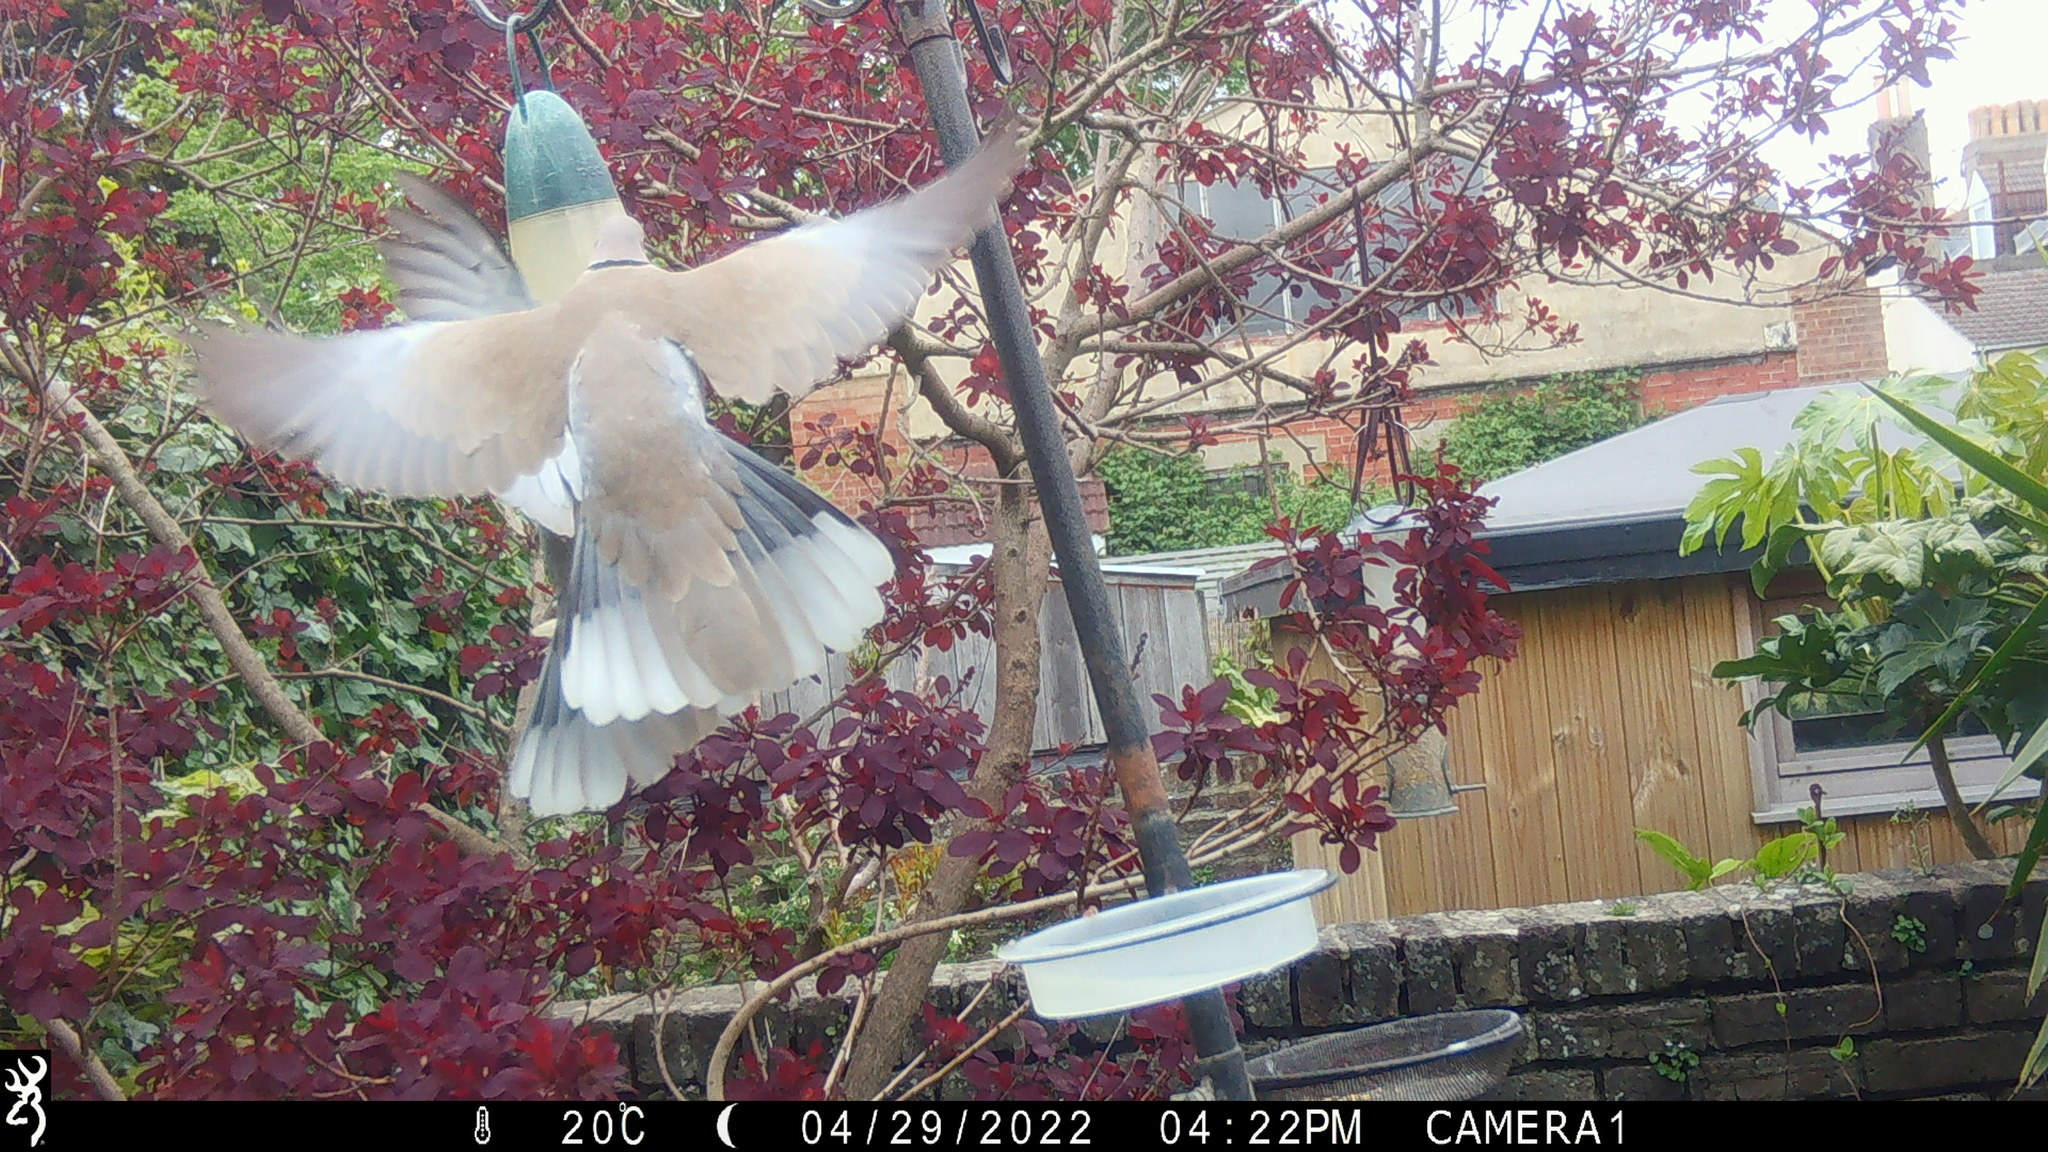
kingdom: Animalia
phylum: Chordata
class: Aves
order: Columbiformes
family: Columbidae
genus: Streptopelia
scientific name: Streptopelia decaocto
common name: Eurasian collared dove
